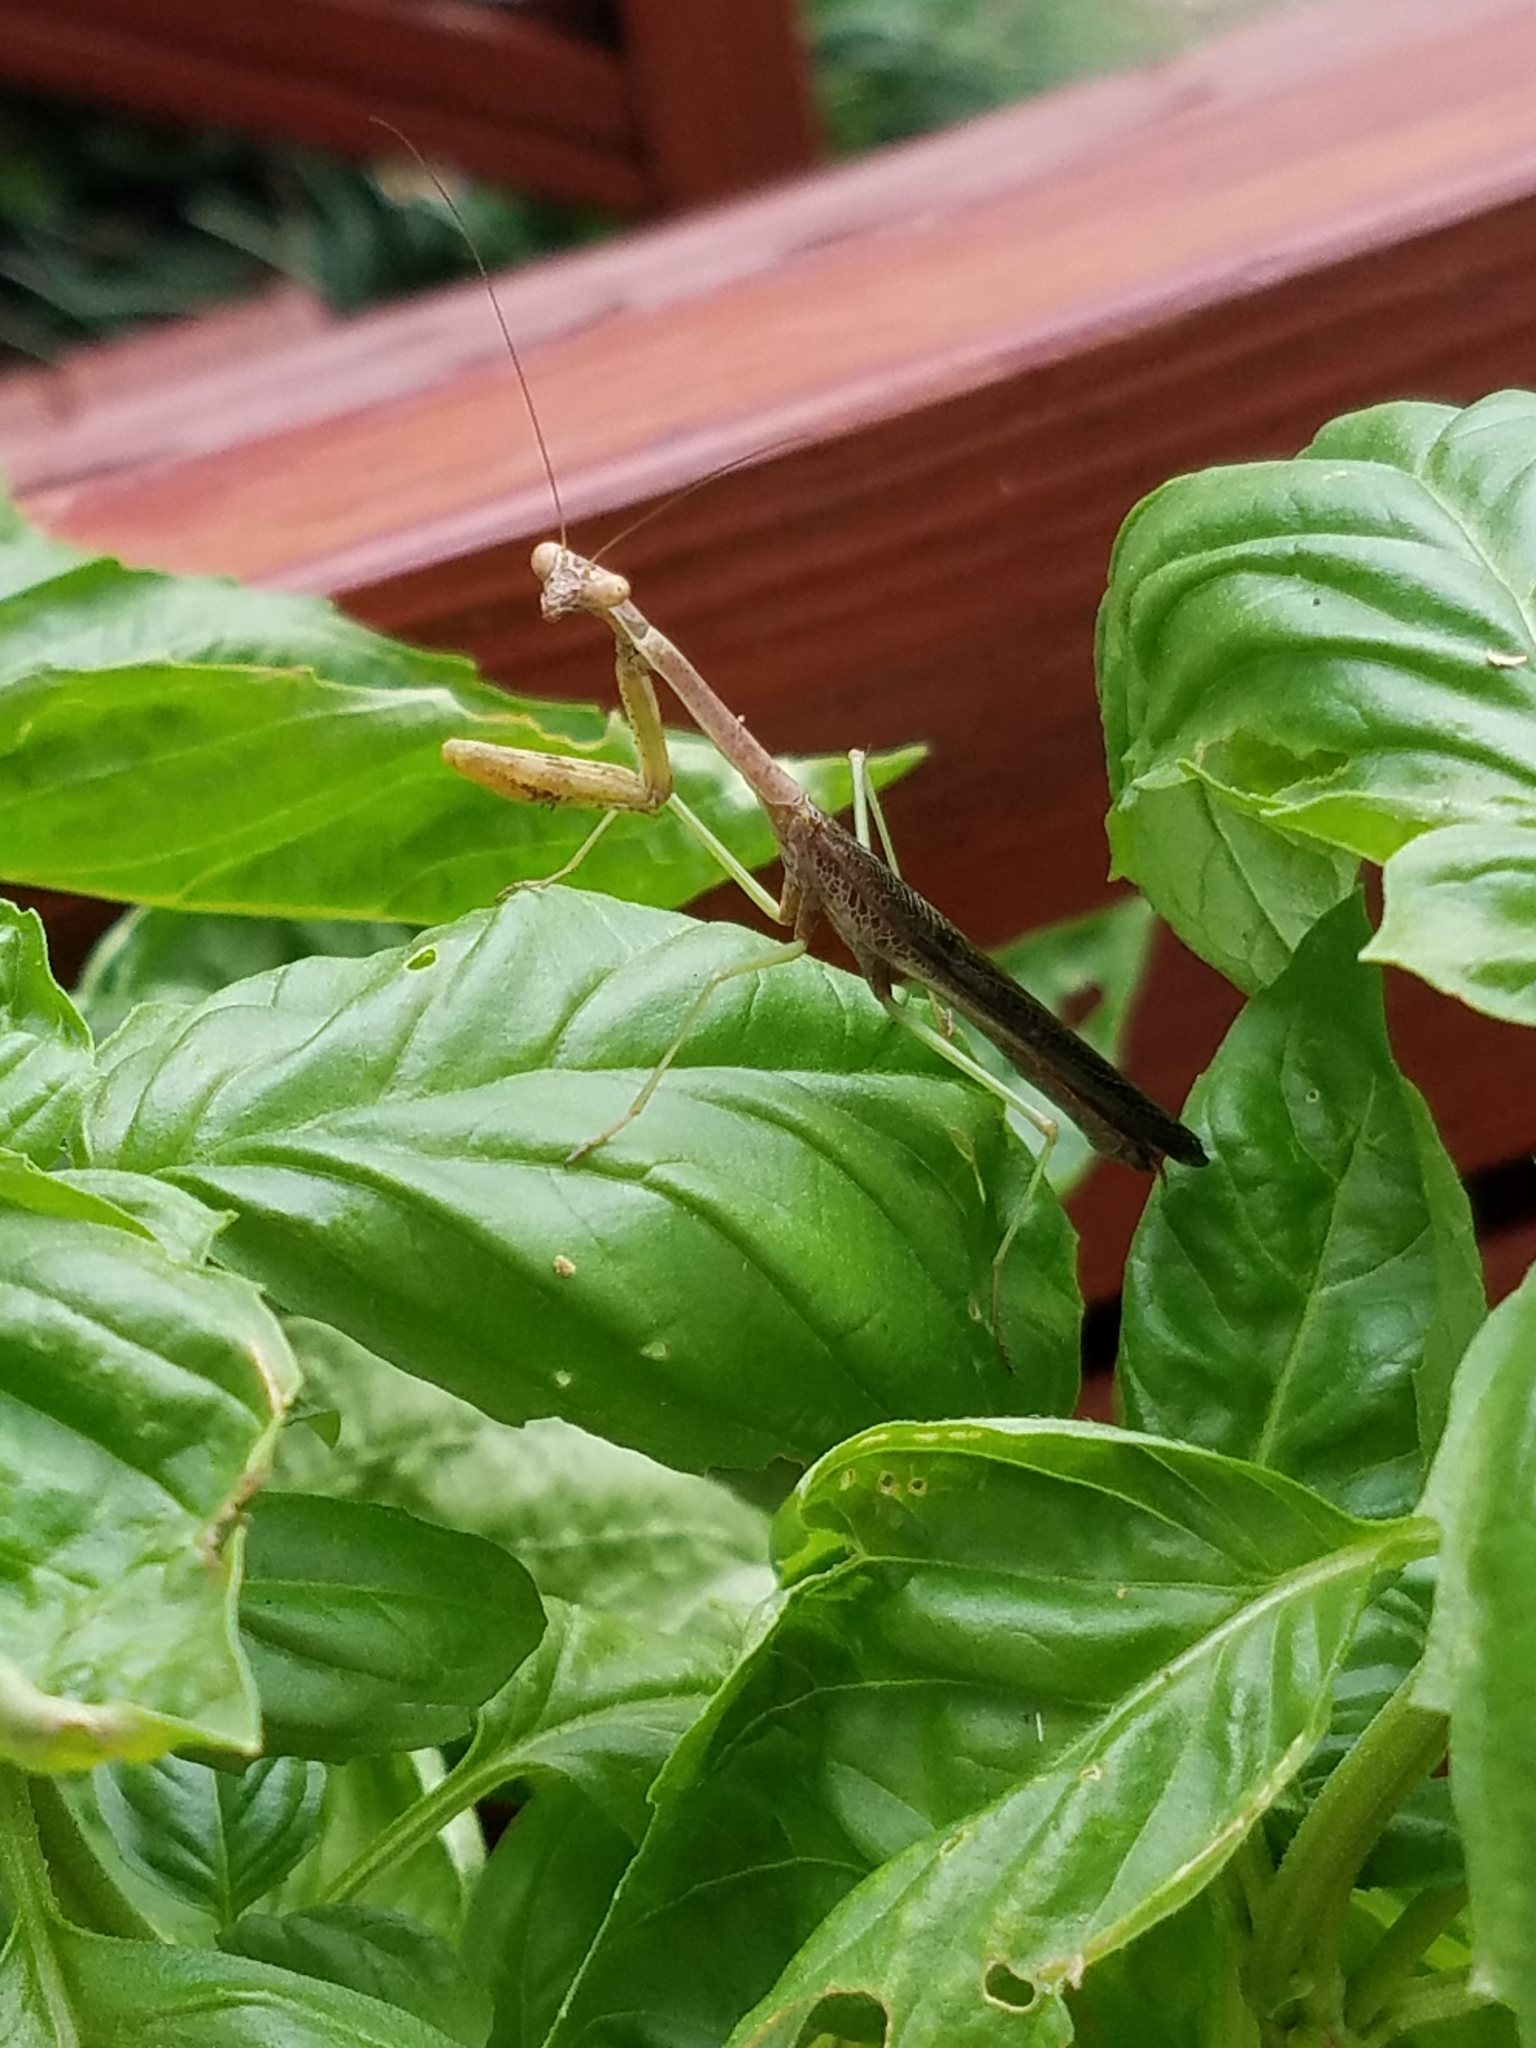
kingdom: Animalia
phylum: Arthropoda
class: Insecta
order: Mantodea
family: Mantidae
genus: Stagmomantis
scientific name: Stagmomantis carolina
